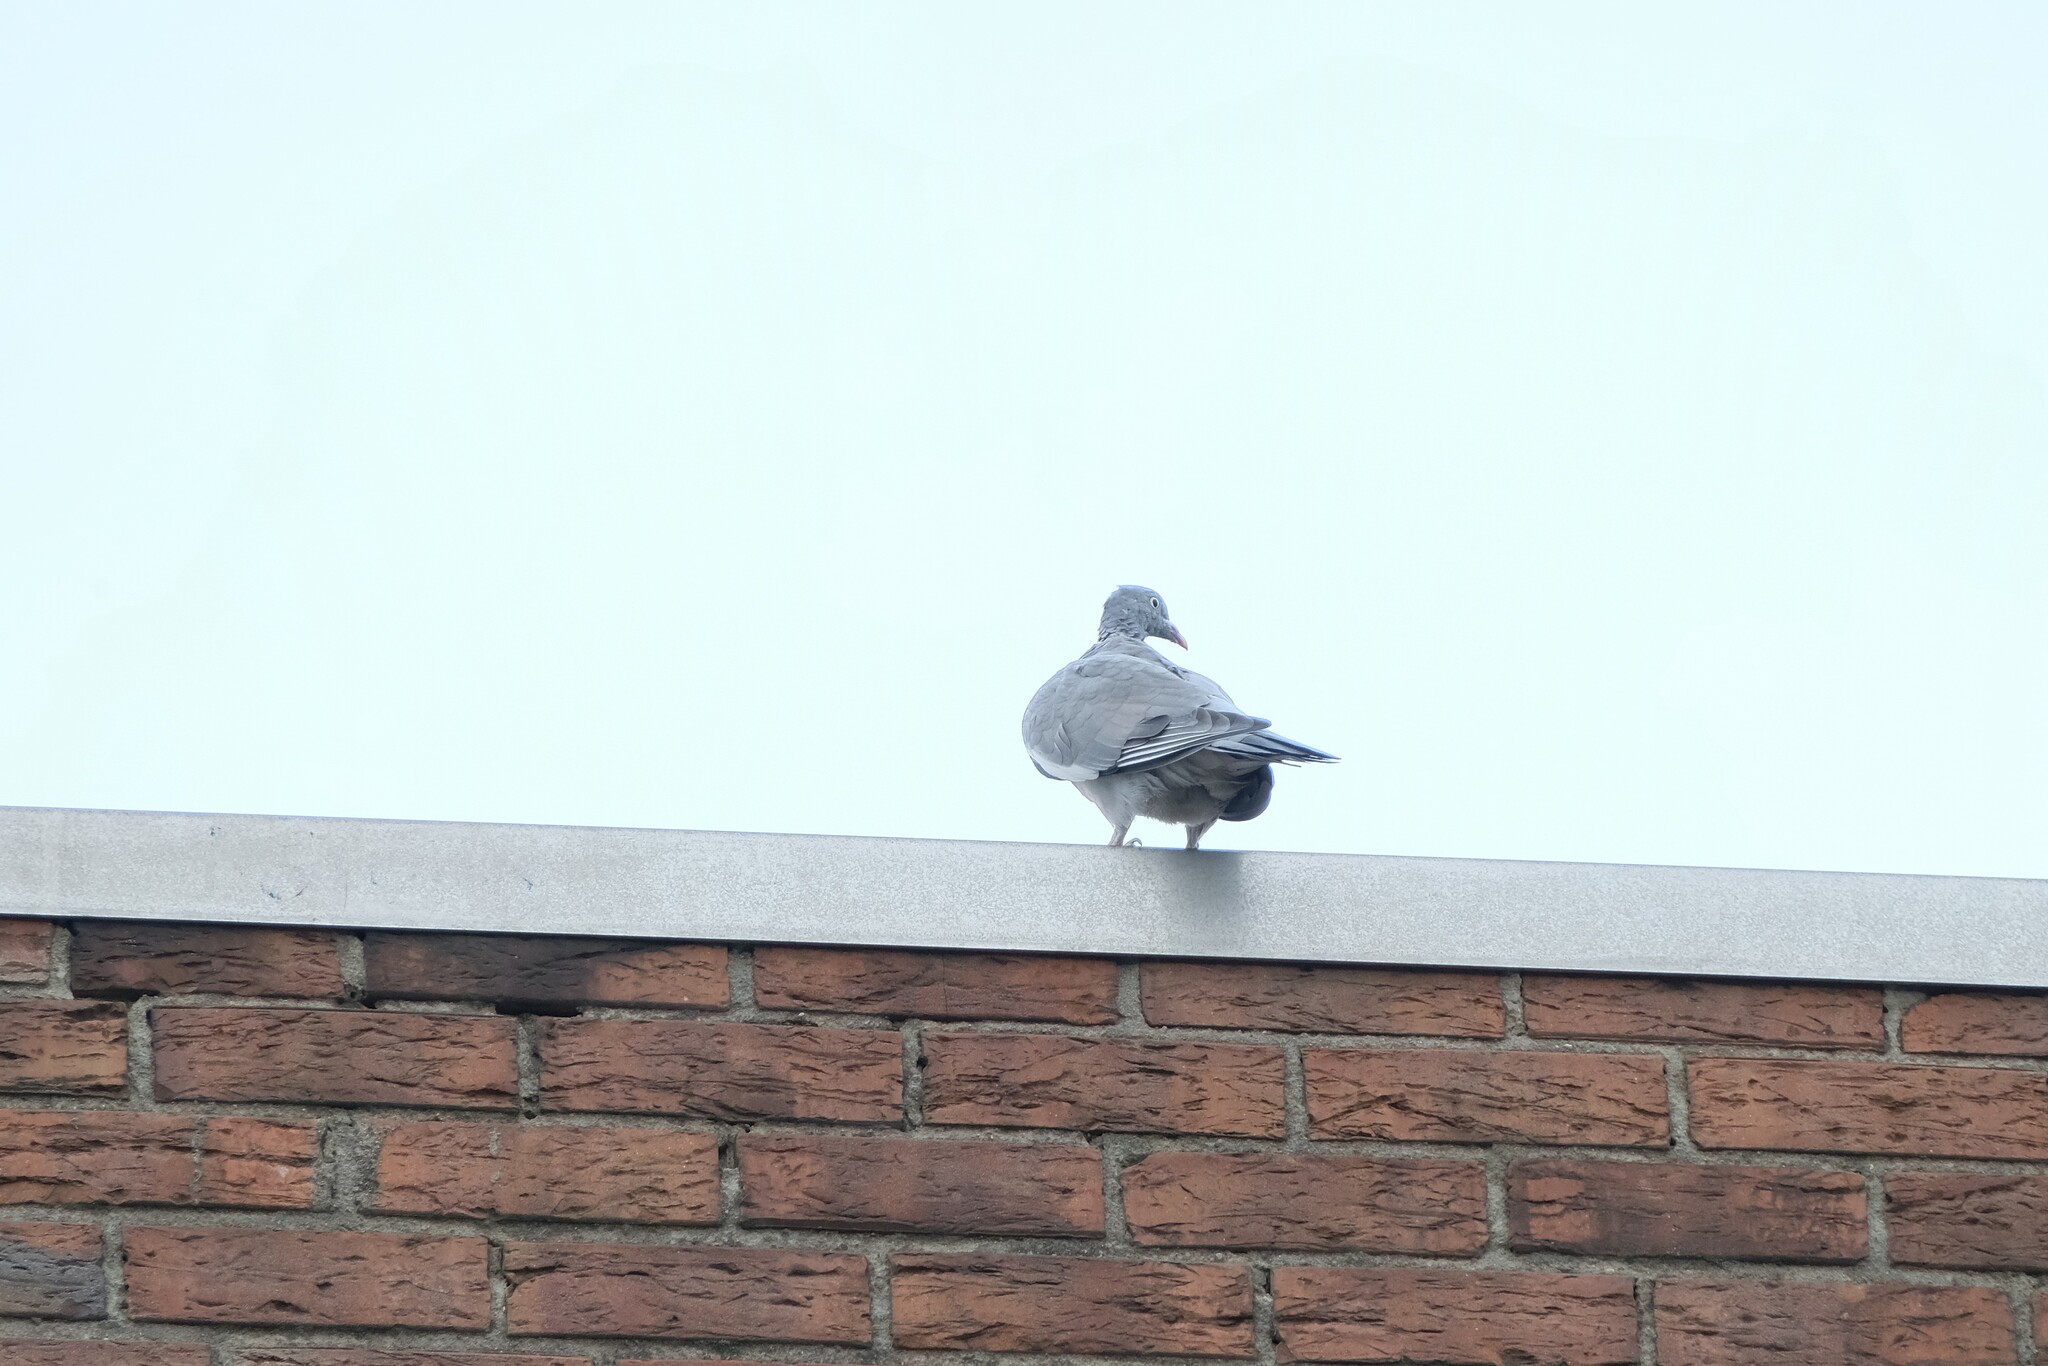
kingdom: Animalia
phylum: Chordata
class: Aves
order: Columbiformes
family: Columbidae
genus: Columba
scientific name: Columba palumbus
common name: Common wood pigeon
